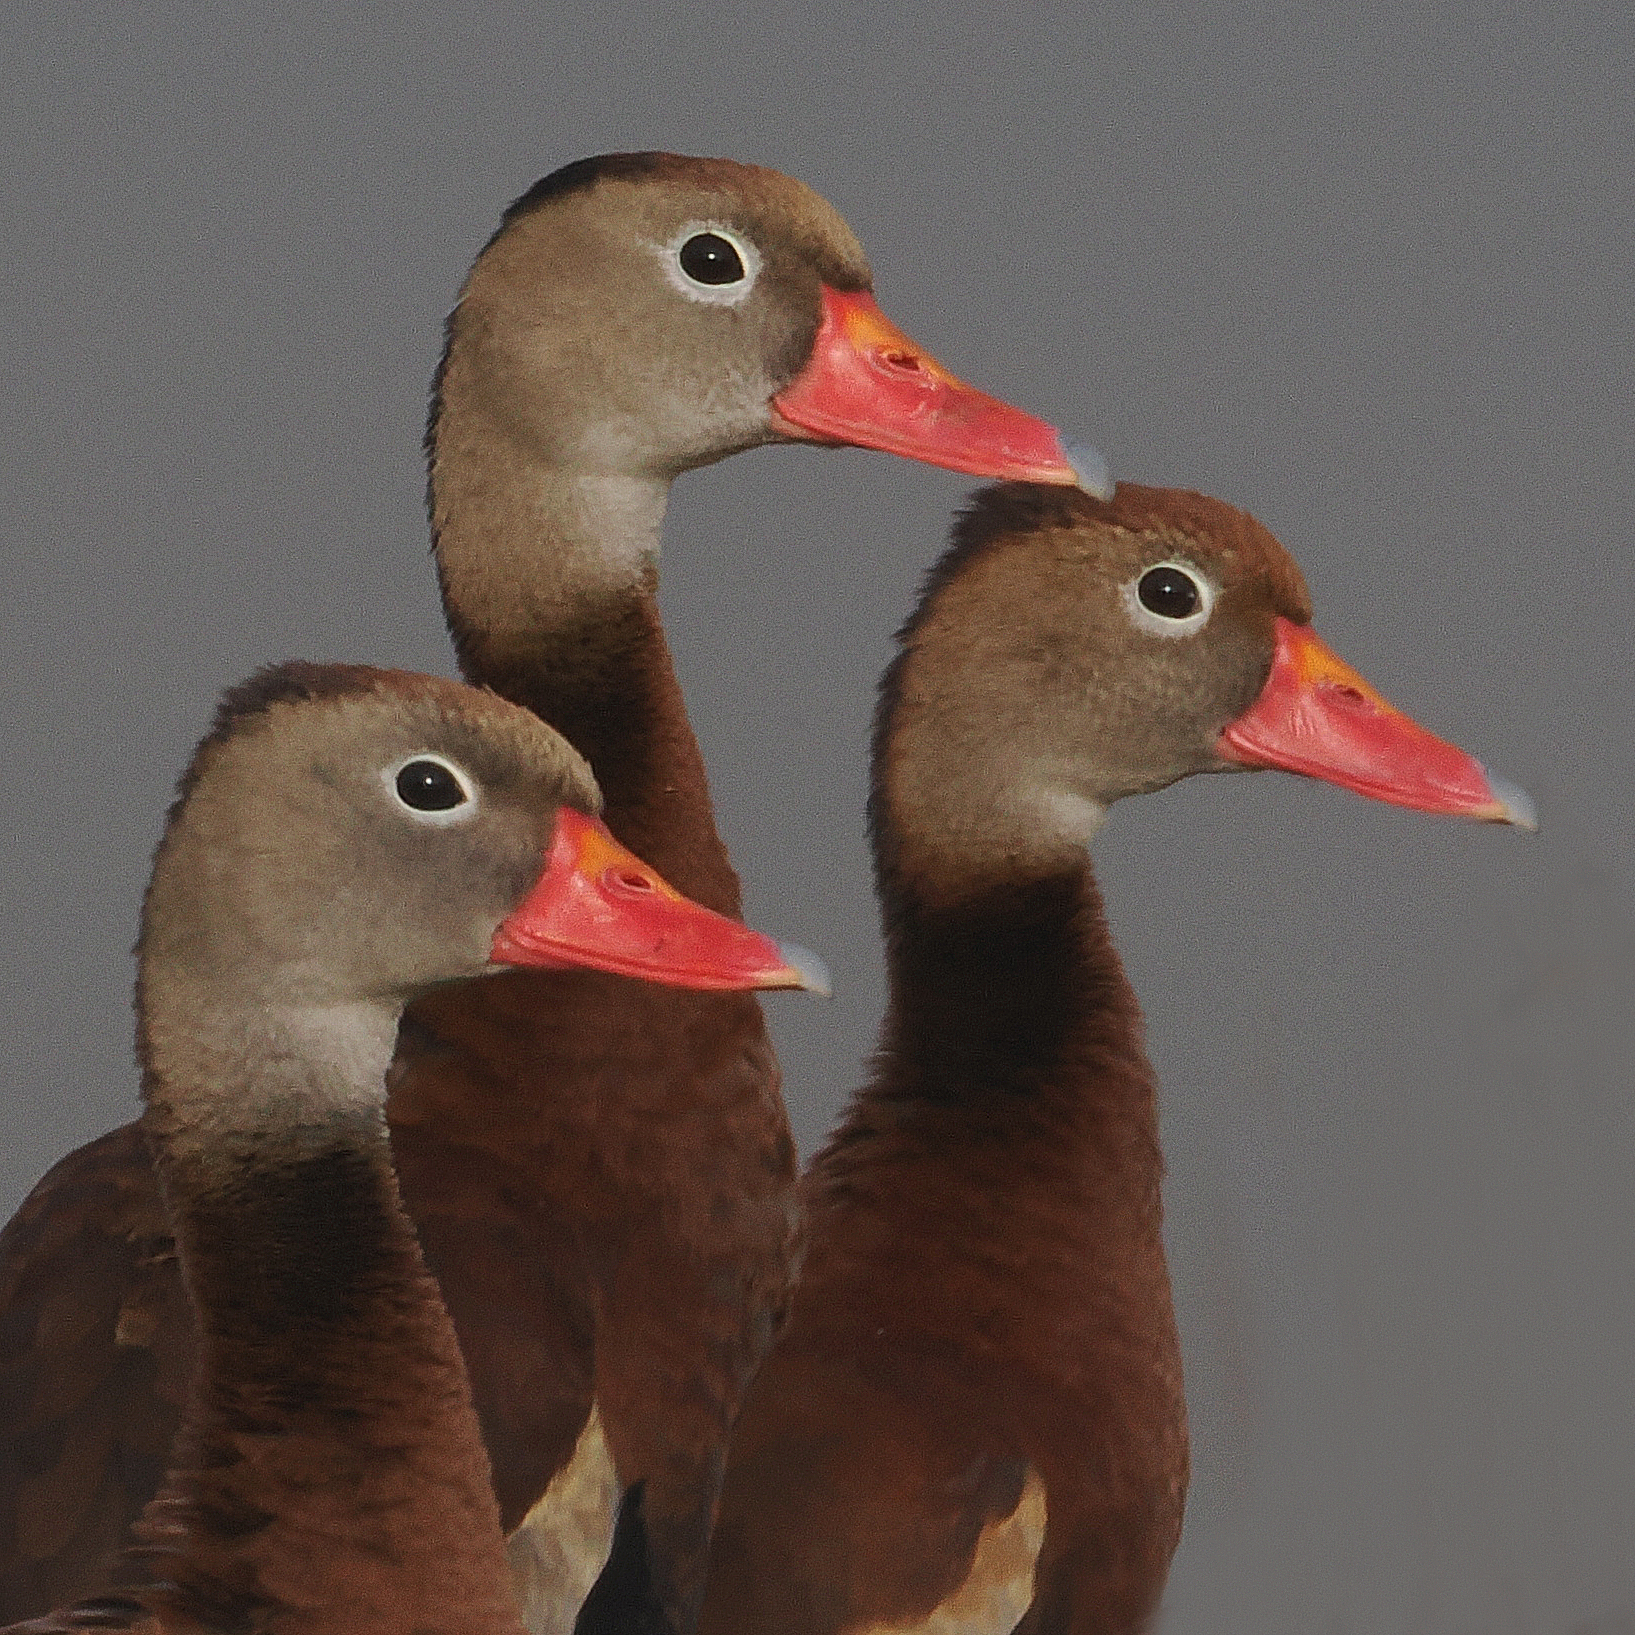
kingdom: Animalia
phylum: Chordata
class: Aves
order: Anseriformes
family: Anatidae
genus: Dendrocygna
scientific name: Dendrocygna autumnalis
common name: Black-bellied whistling duck
